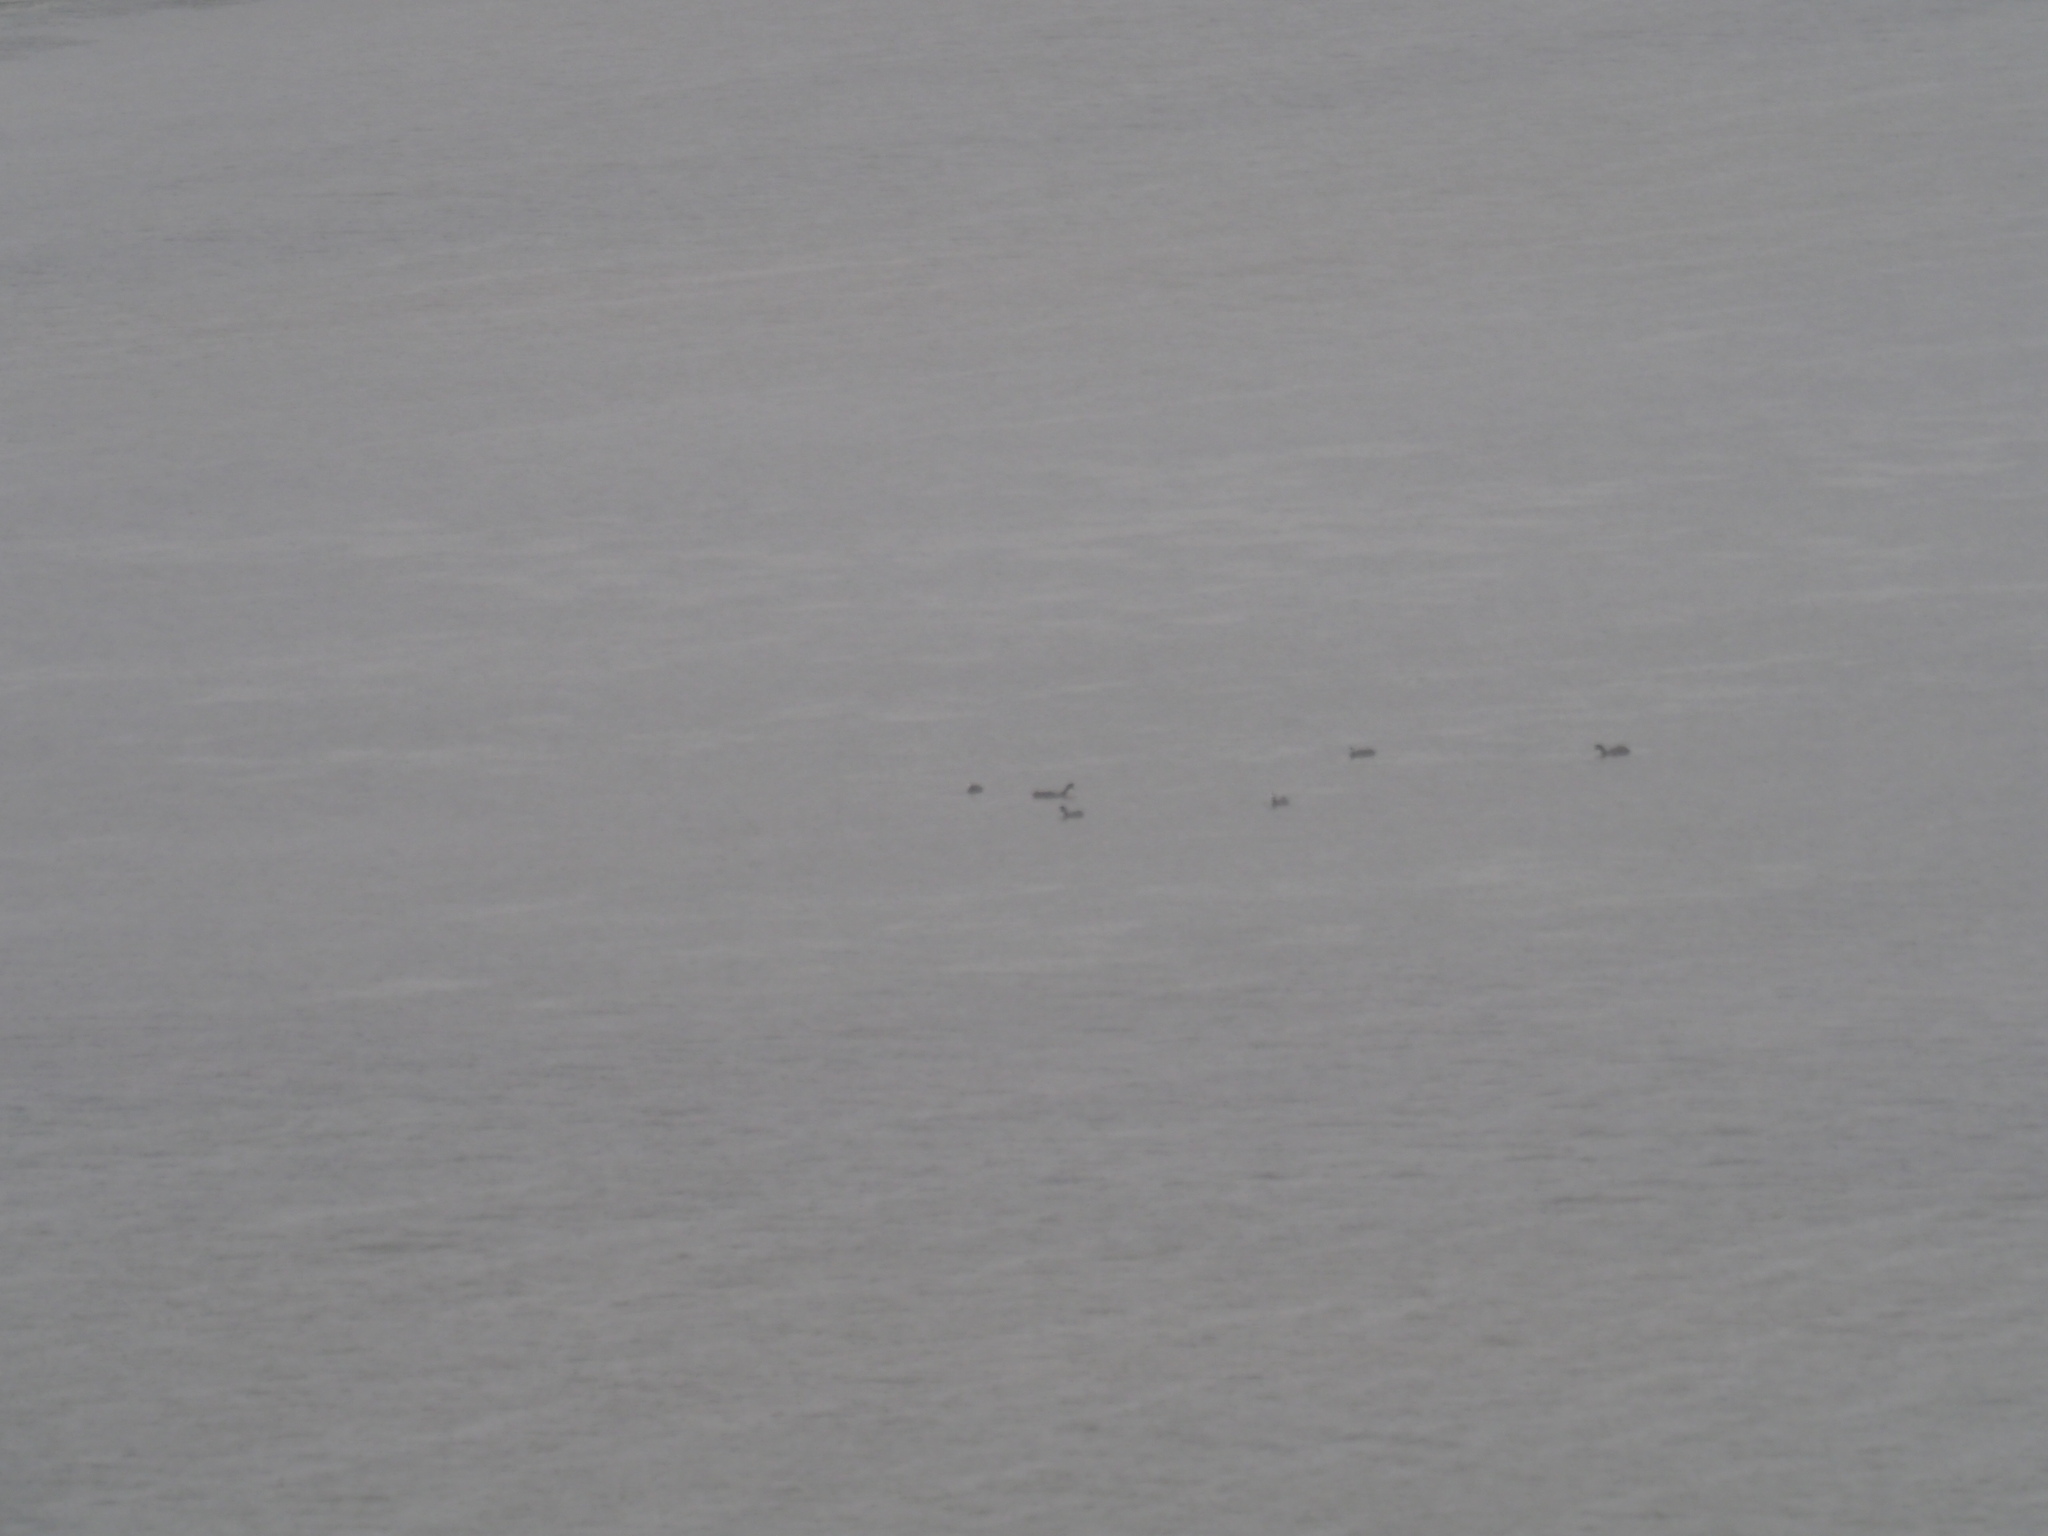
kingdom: Animalia
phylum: Chordata
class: Aves
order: Gruiformes
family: Rallidae
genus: Fulica
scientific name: Fulica cristata
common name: Red-knobbed coot
